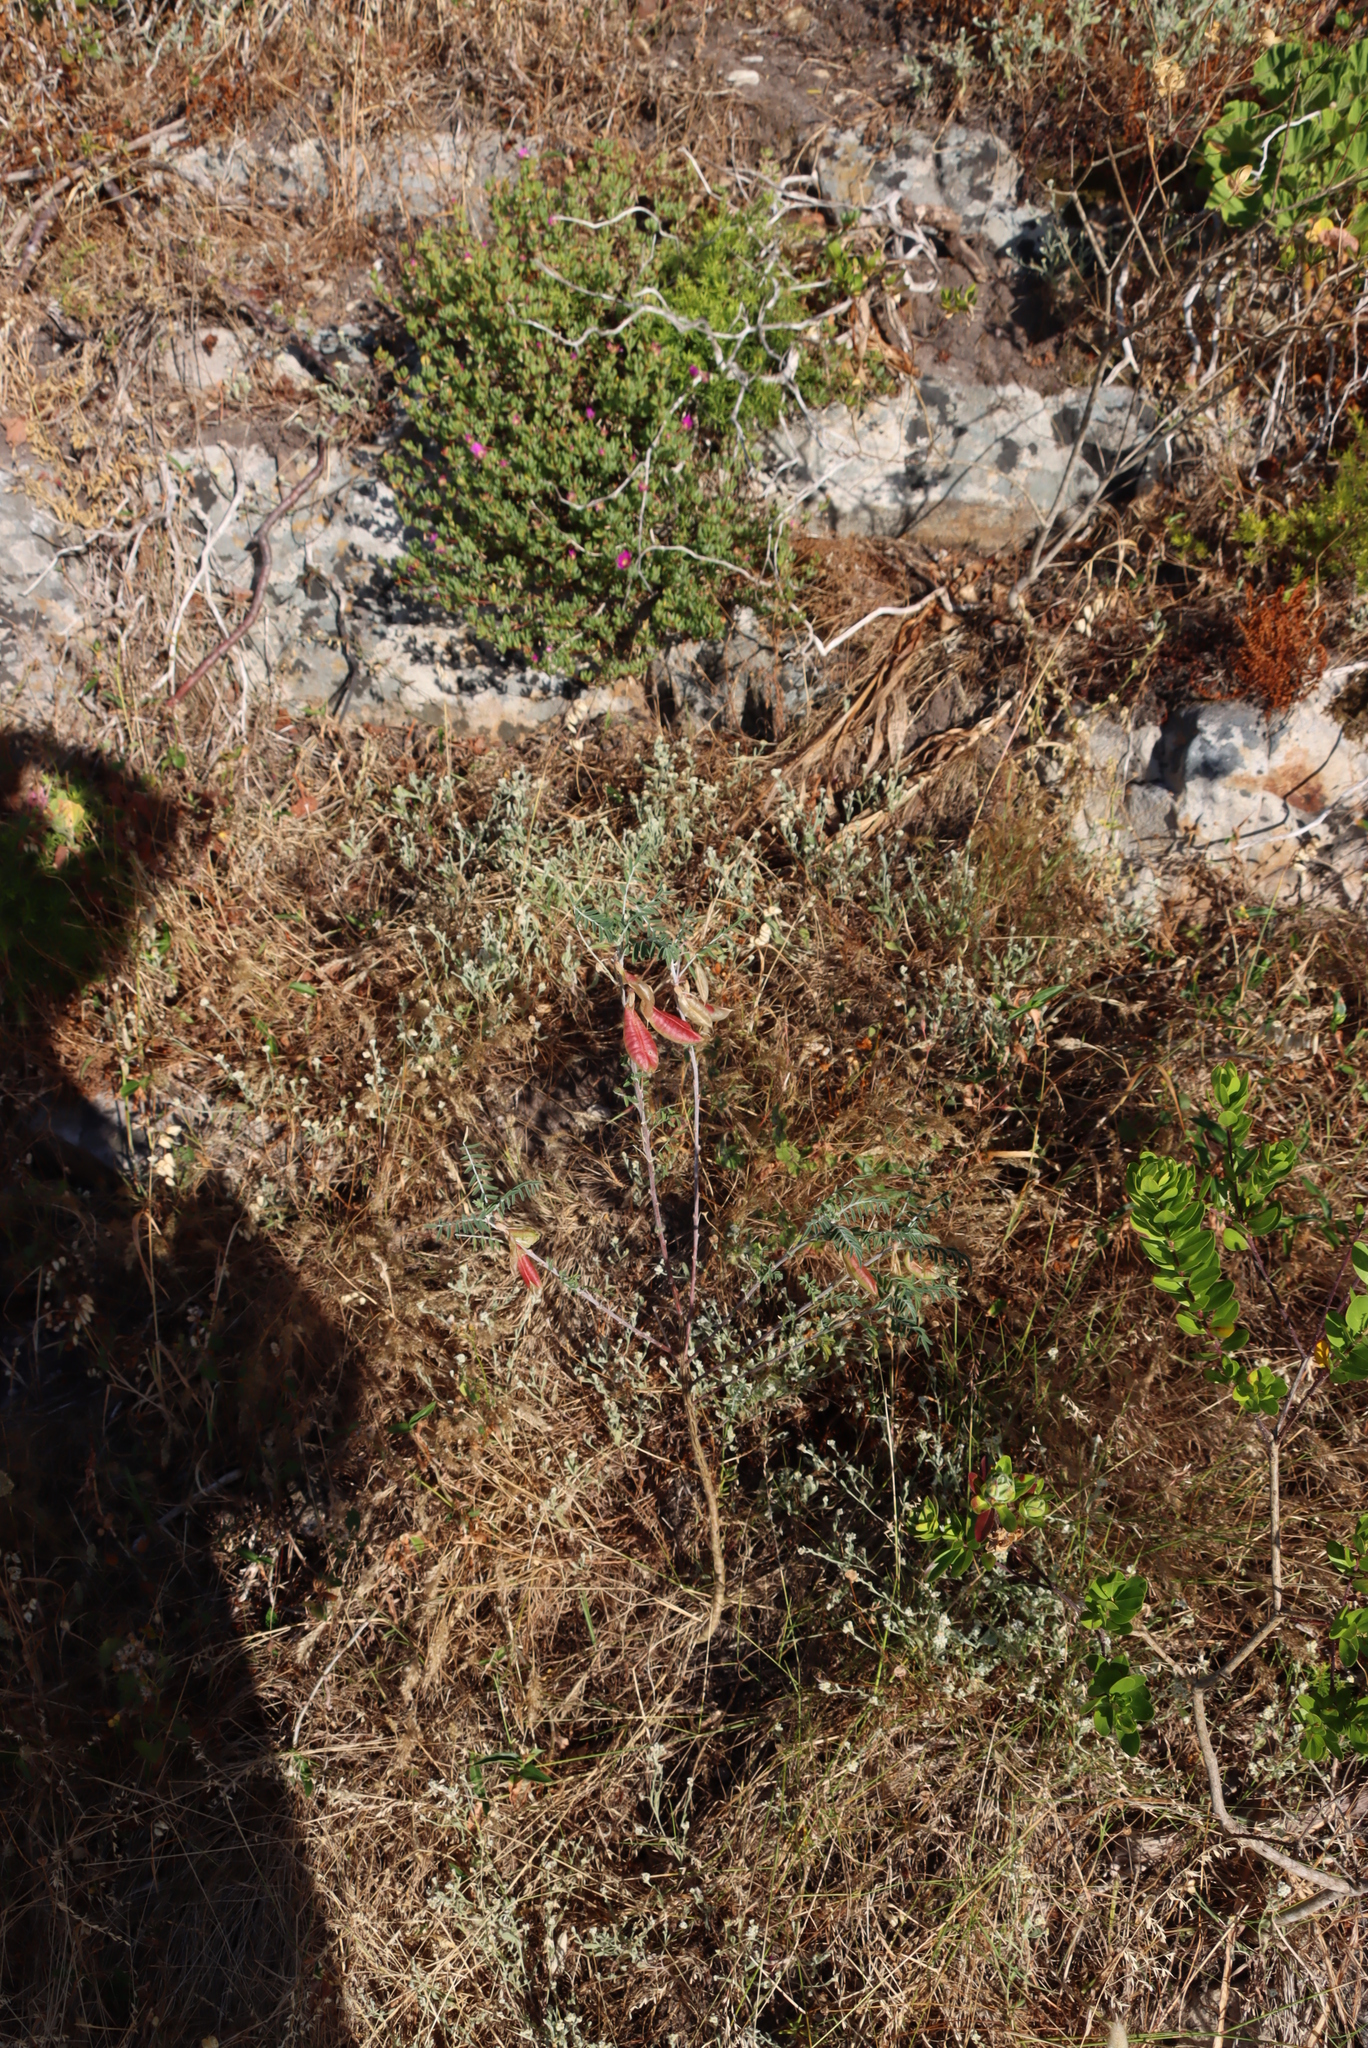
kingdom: Plantae
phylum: Tracheophyta
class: Magnoliopsida
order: Fabales
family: Fabaceae
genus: Lessertia
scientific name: Lessertia frutescens
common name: Balloon-pea
